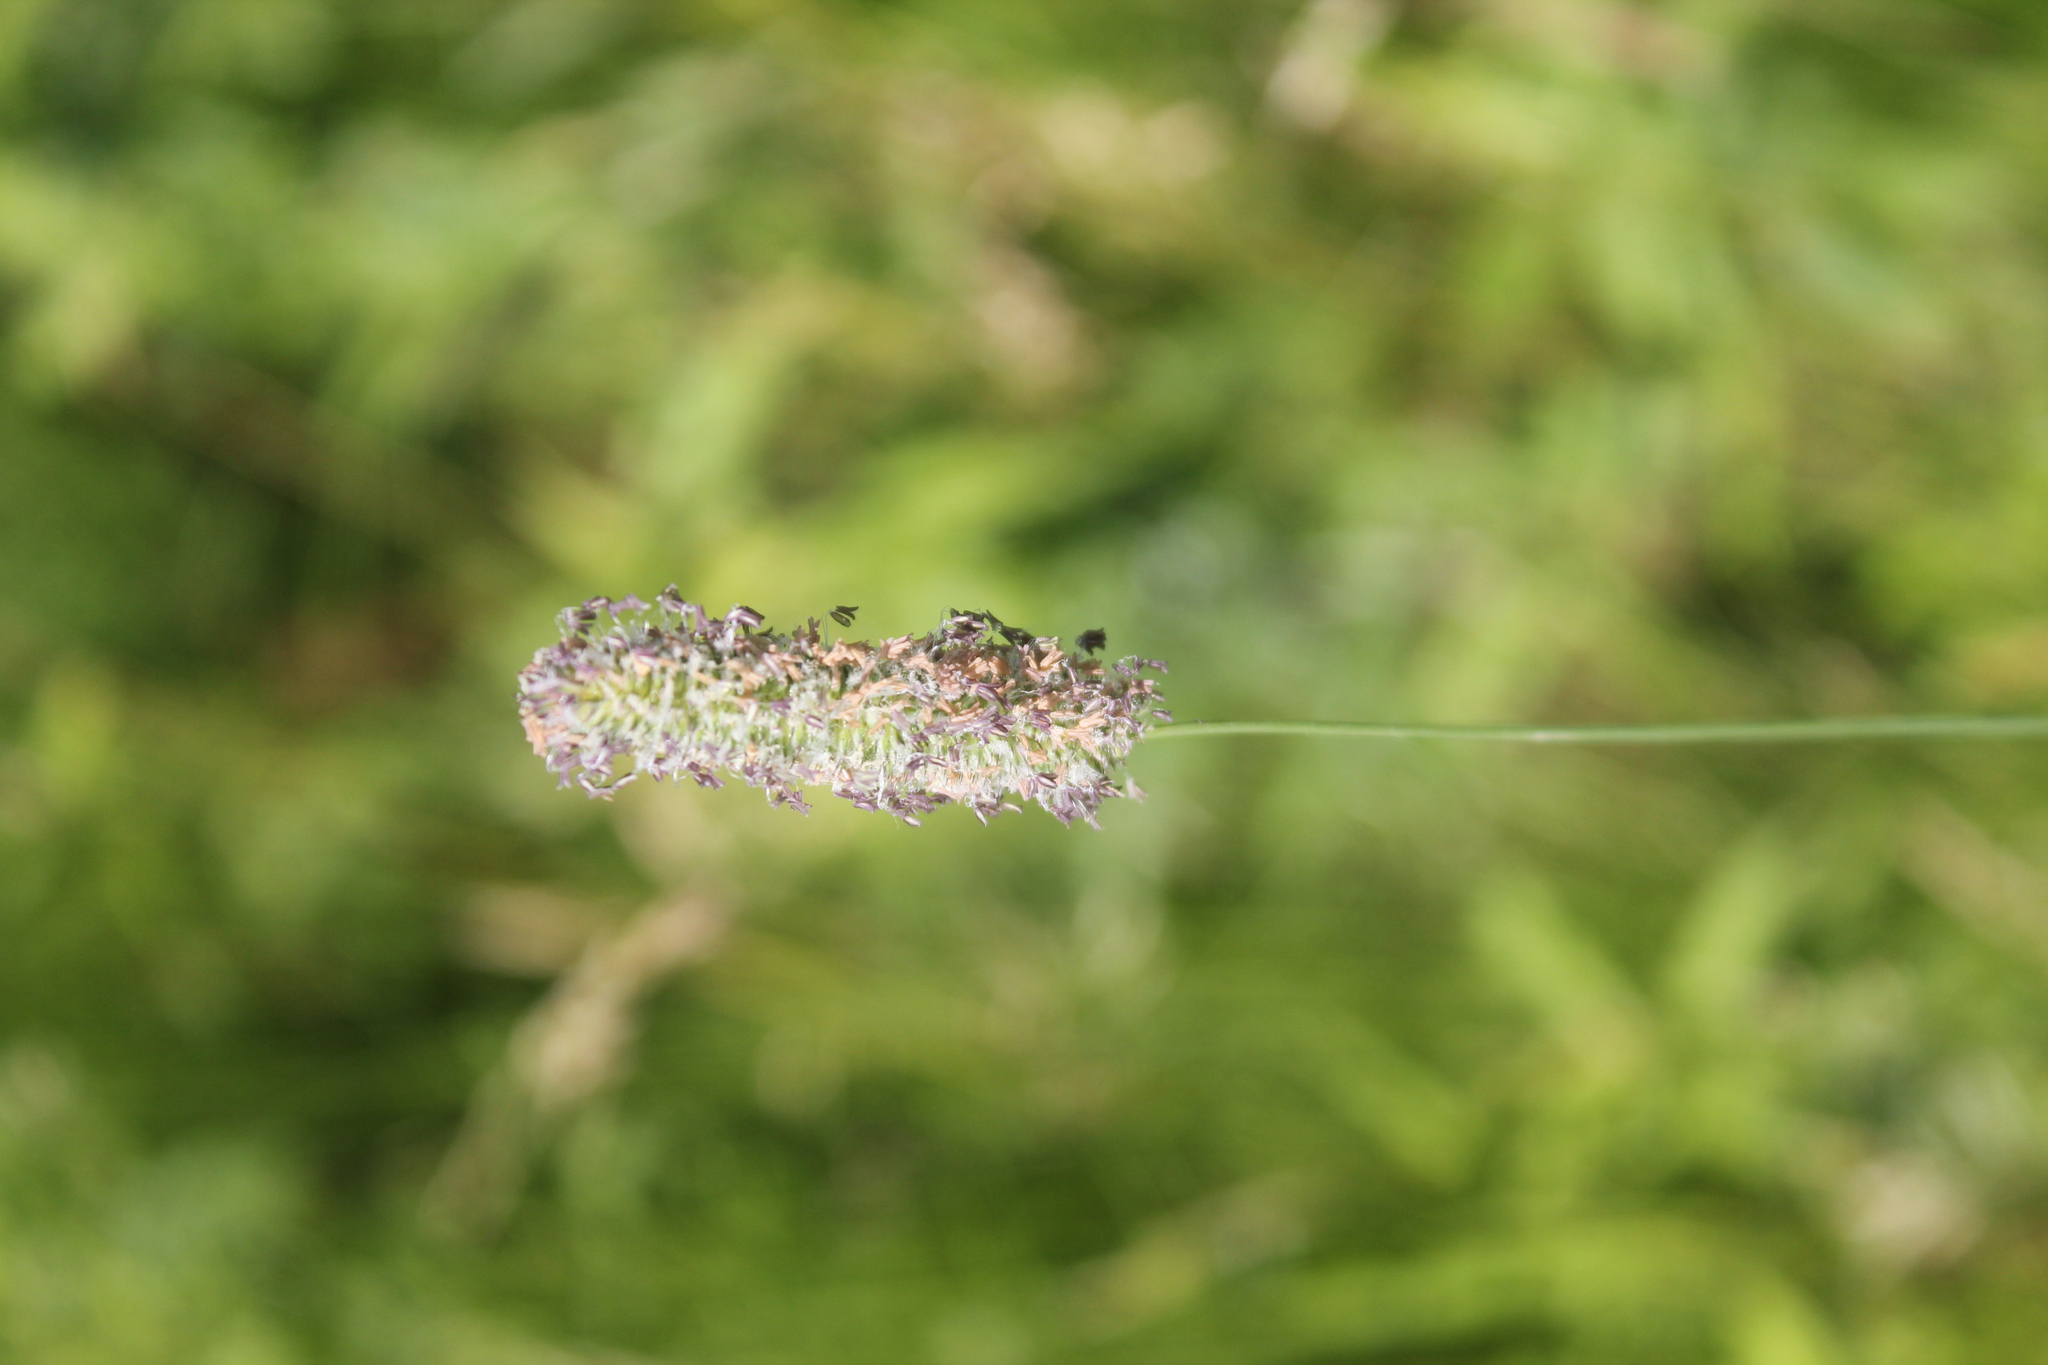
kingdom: Plantae
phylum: Tracheophyta
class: Liliopsida
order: Poales
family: Poaceae
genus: Phleum
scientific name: Phleum pratense
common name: Timothy grass
